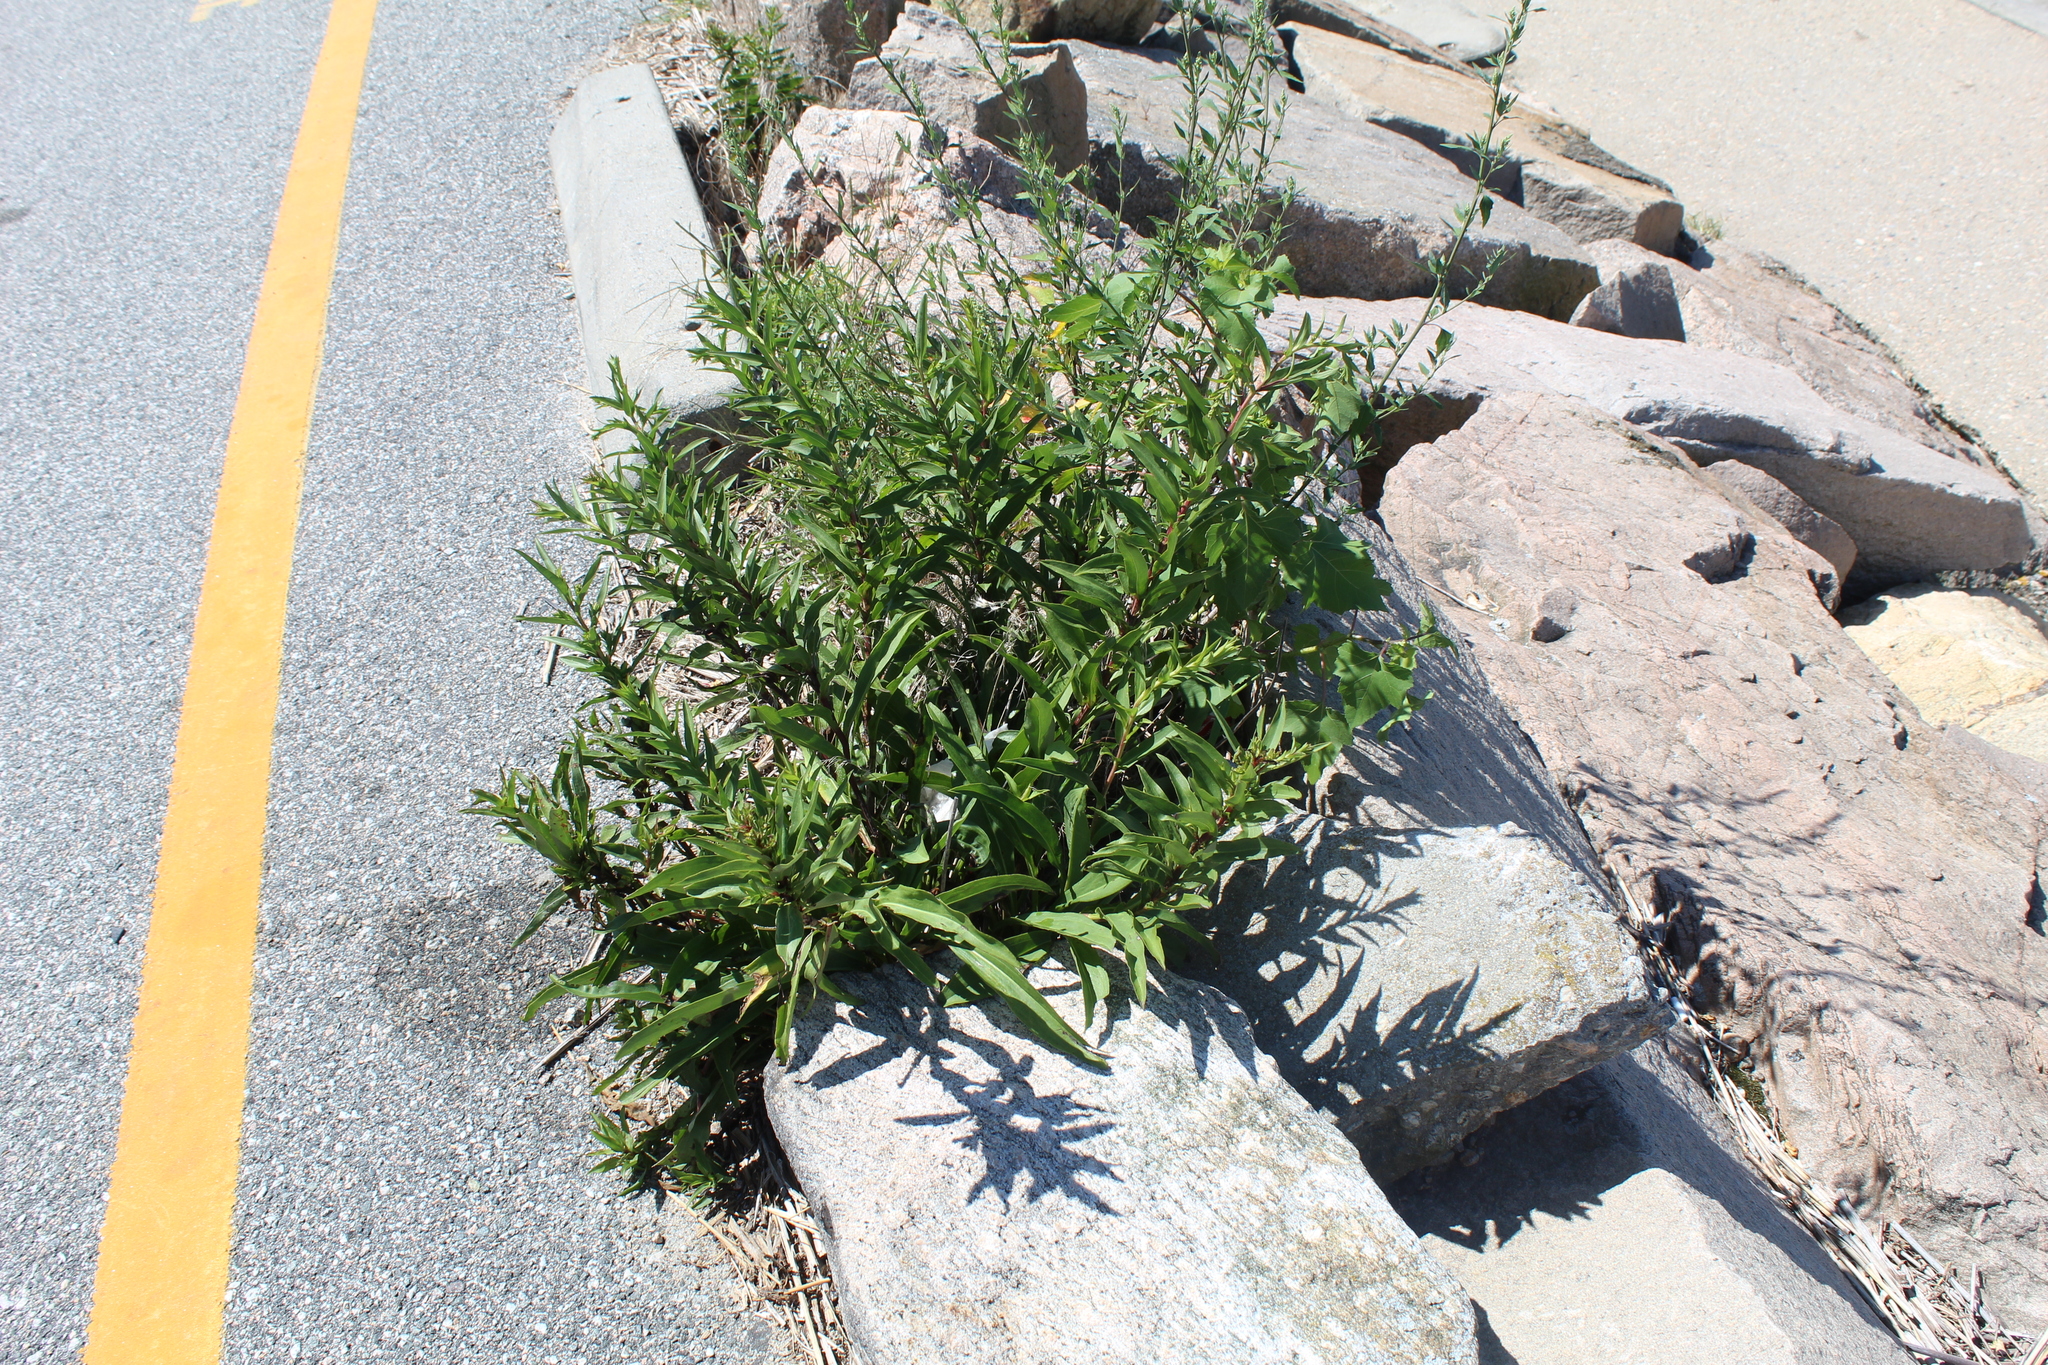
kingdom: Plantae
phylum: Tracheophyta
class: Magnoliopsida
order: Asterales
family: Asteraceae
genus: Solidago
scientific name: Solidago sempervirens
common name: Salt-marsh goldenrod
